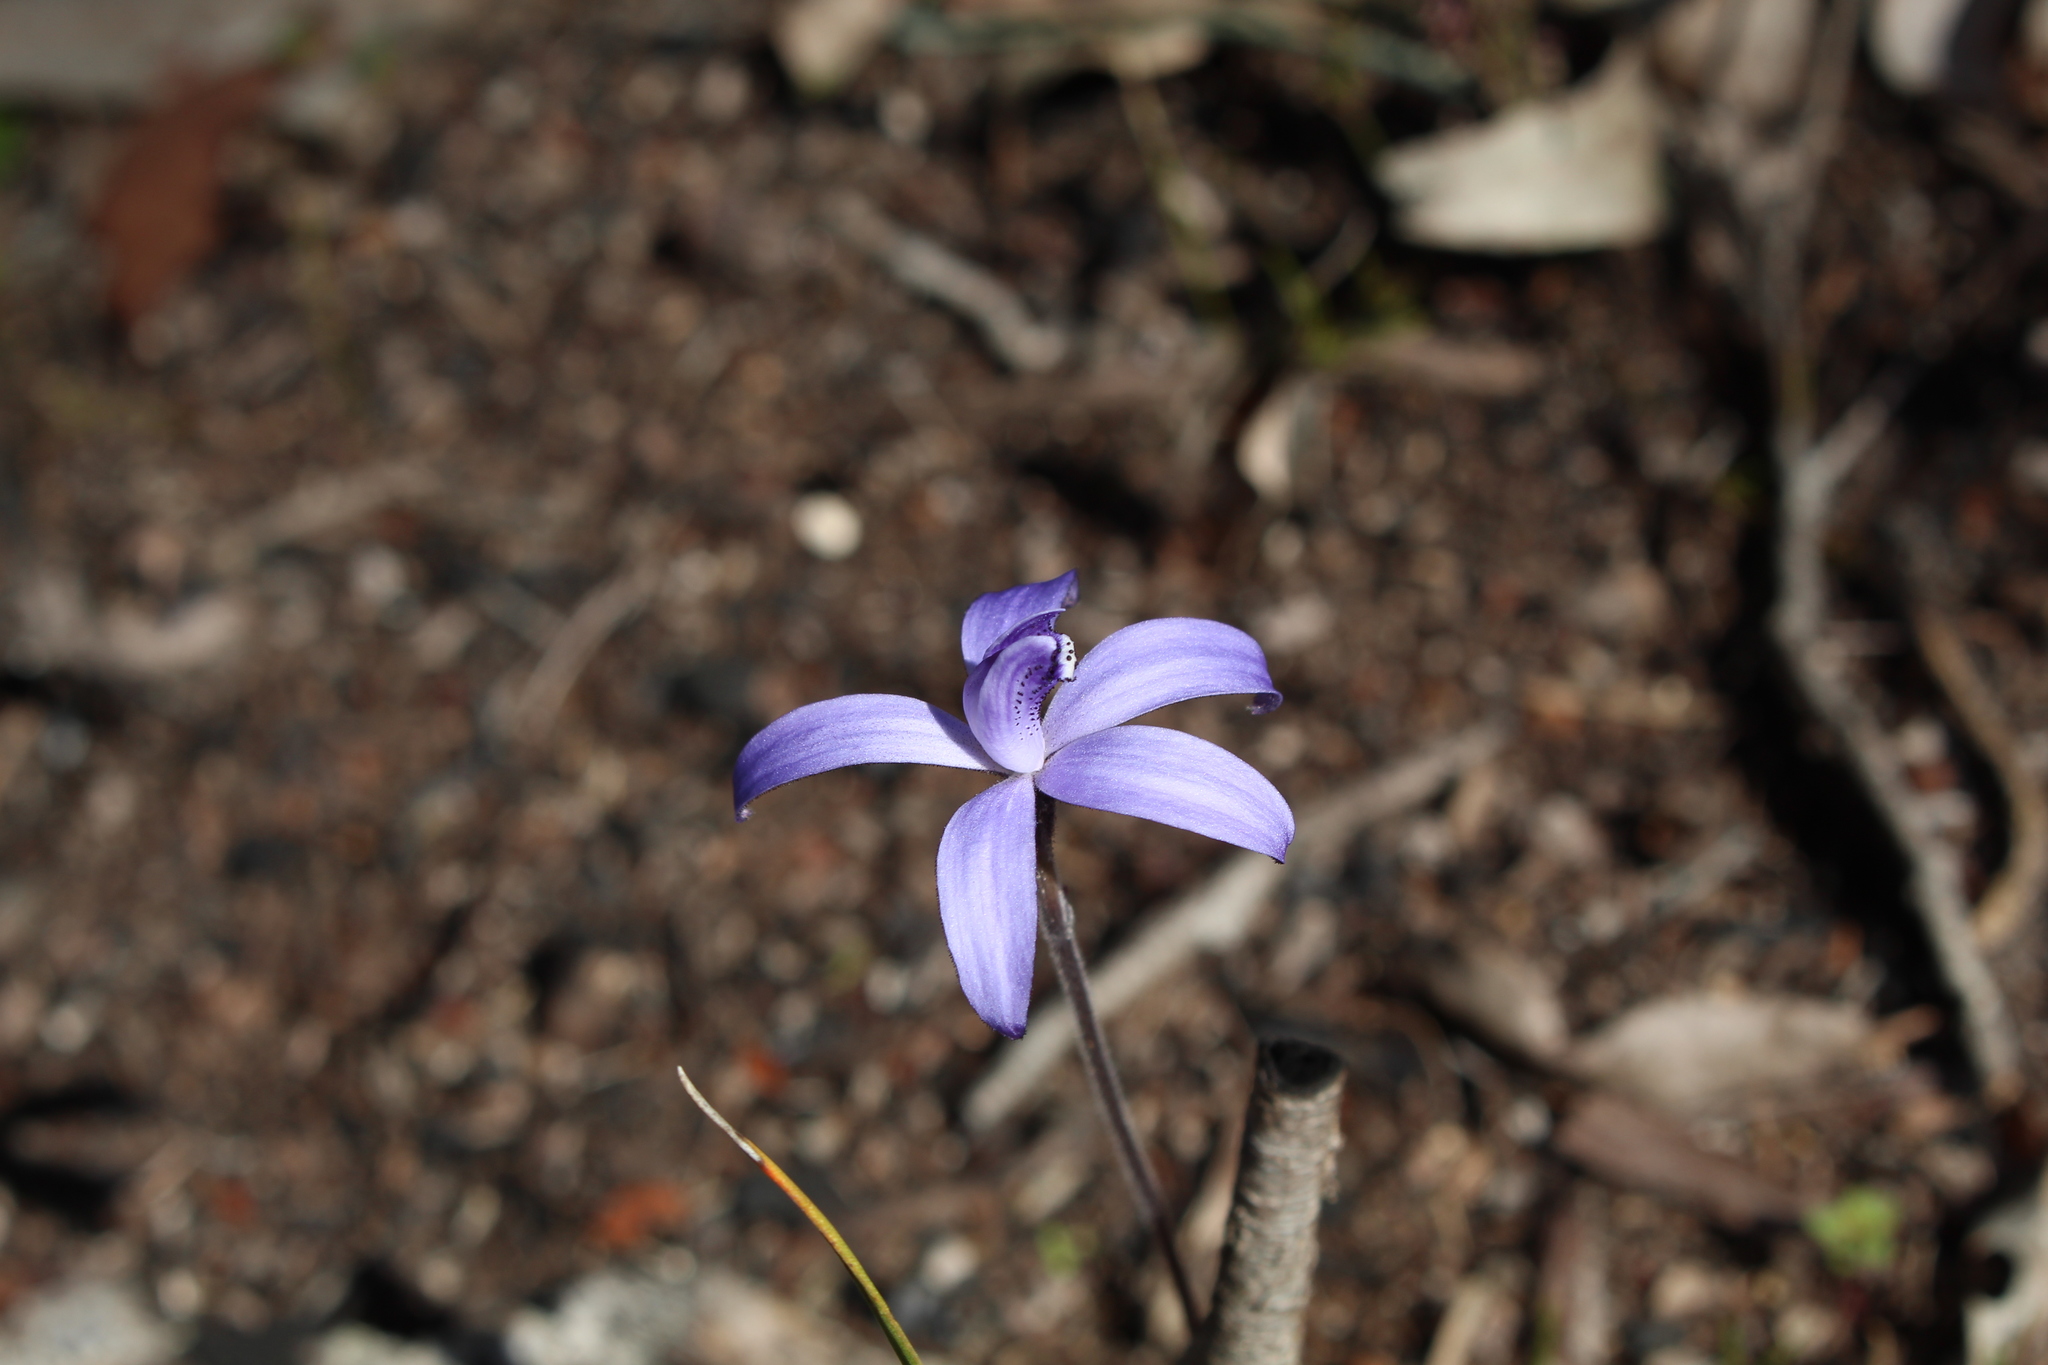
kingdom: Plantae
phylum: Tracheophyta
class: Liliopsida
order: Asparagales
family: Orchidaceae
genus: Caladenia
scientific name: Caladenia sericea
